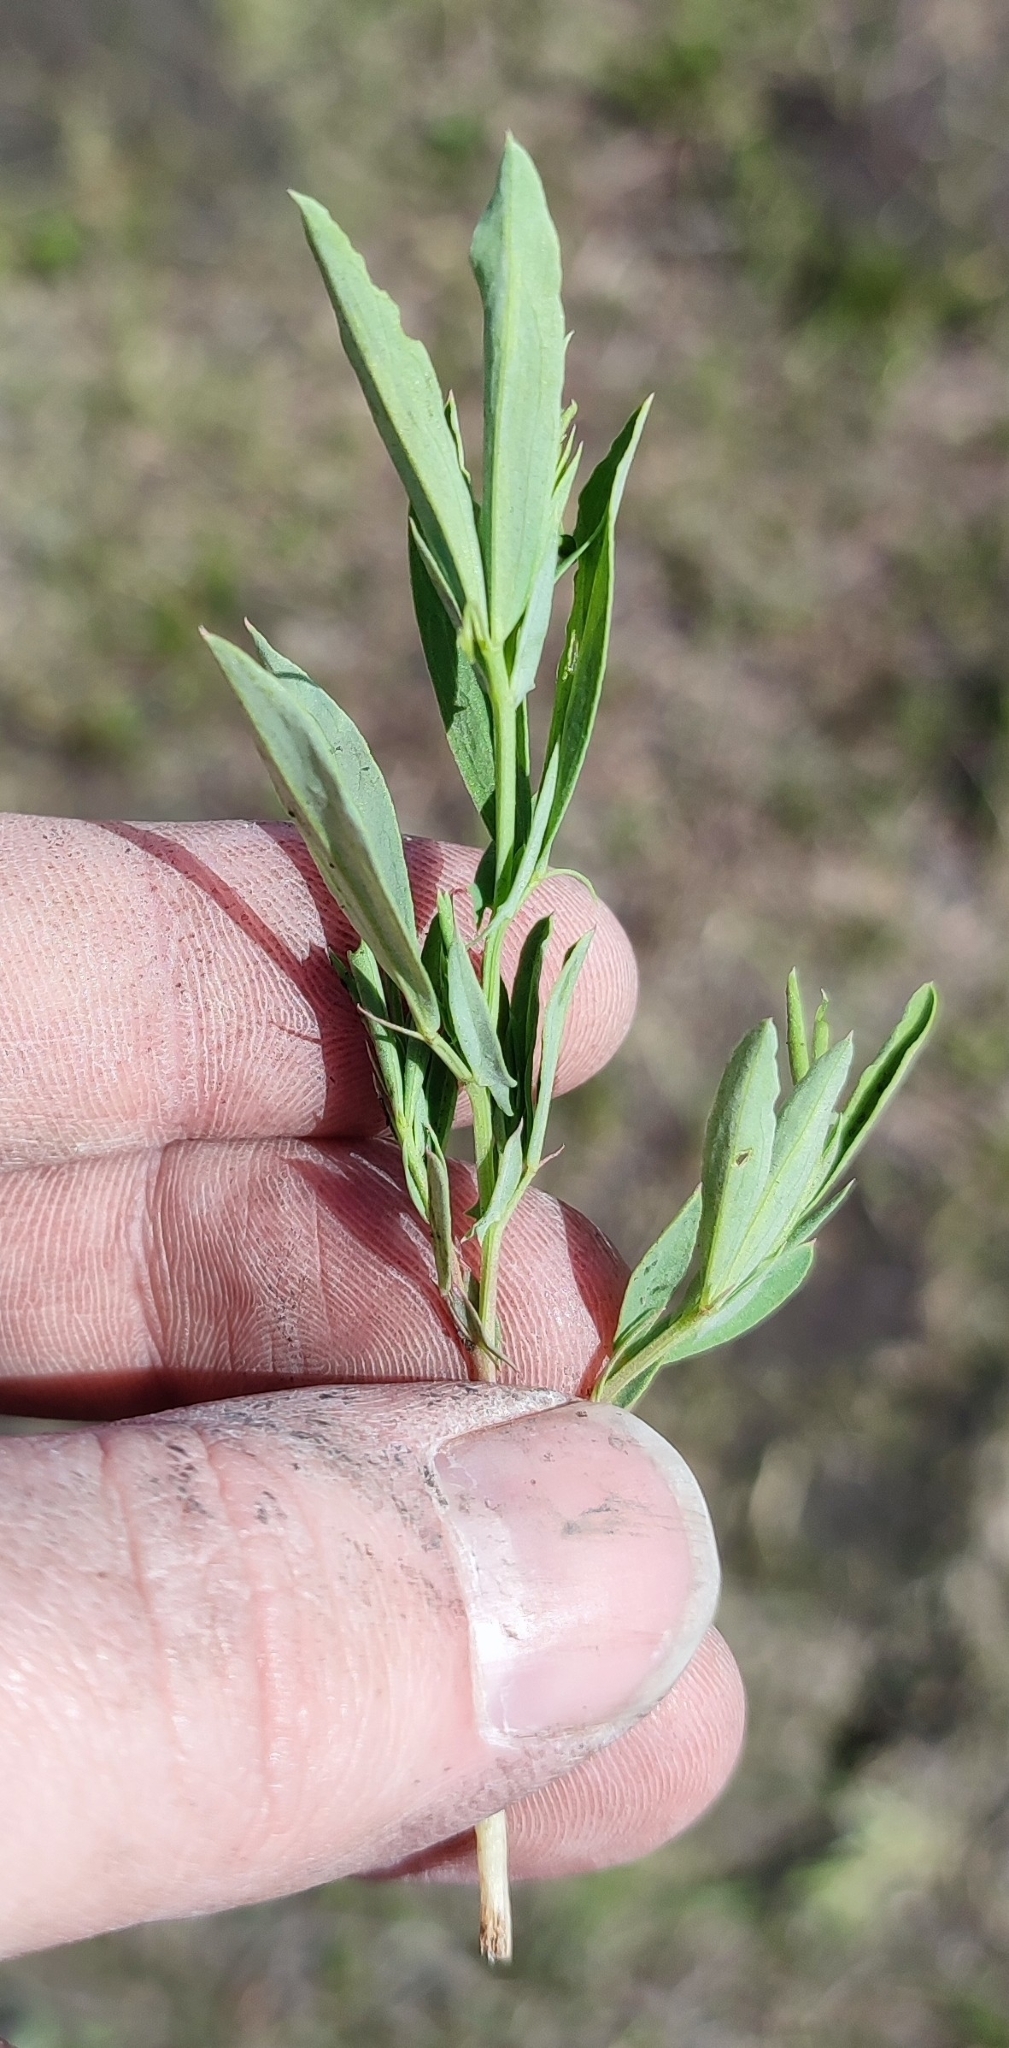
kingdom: Plantae
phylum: Tracheophyta
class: Magnoliopsida
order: Fabales
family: Fabaceae
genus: Lathyrus
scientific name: Lathyrus pratensis
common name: Meadow vetchling
